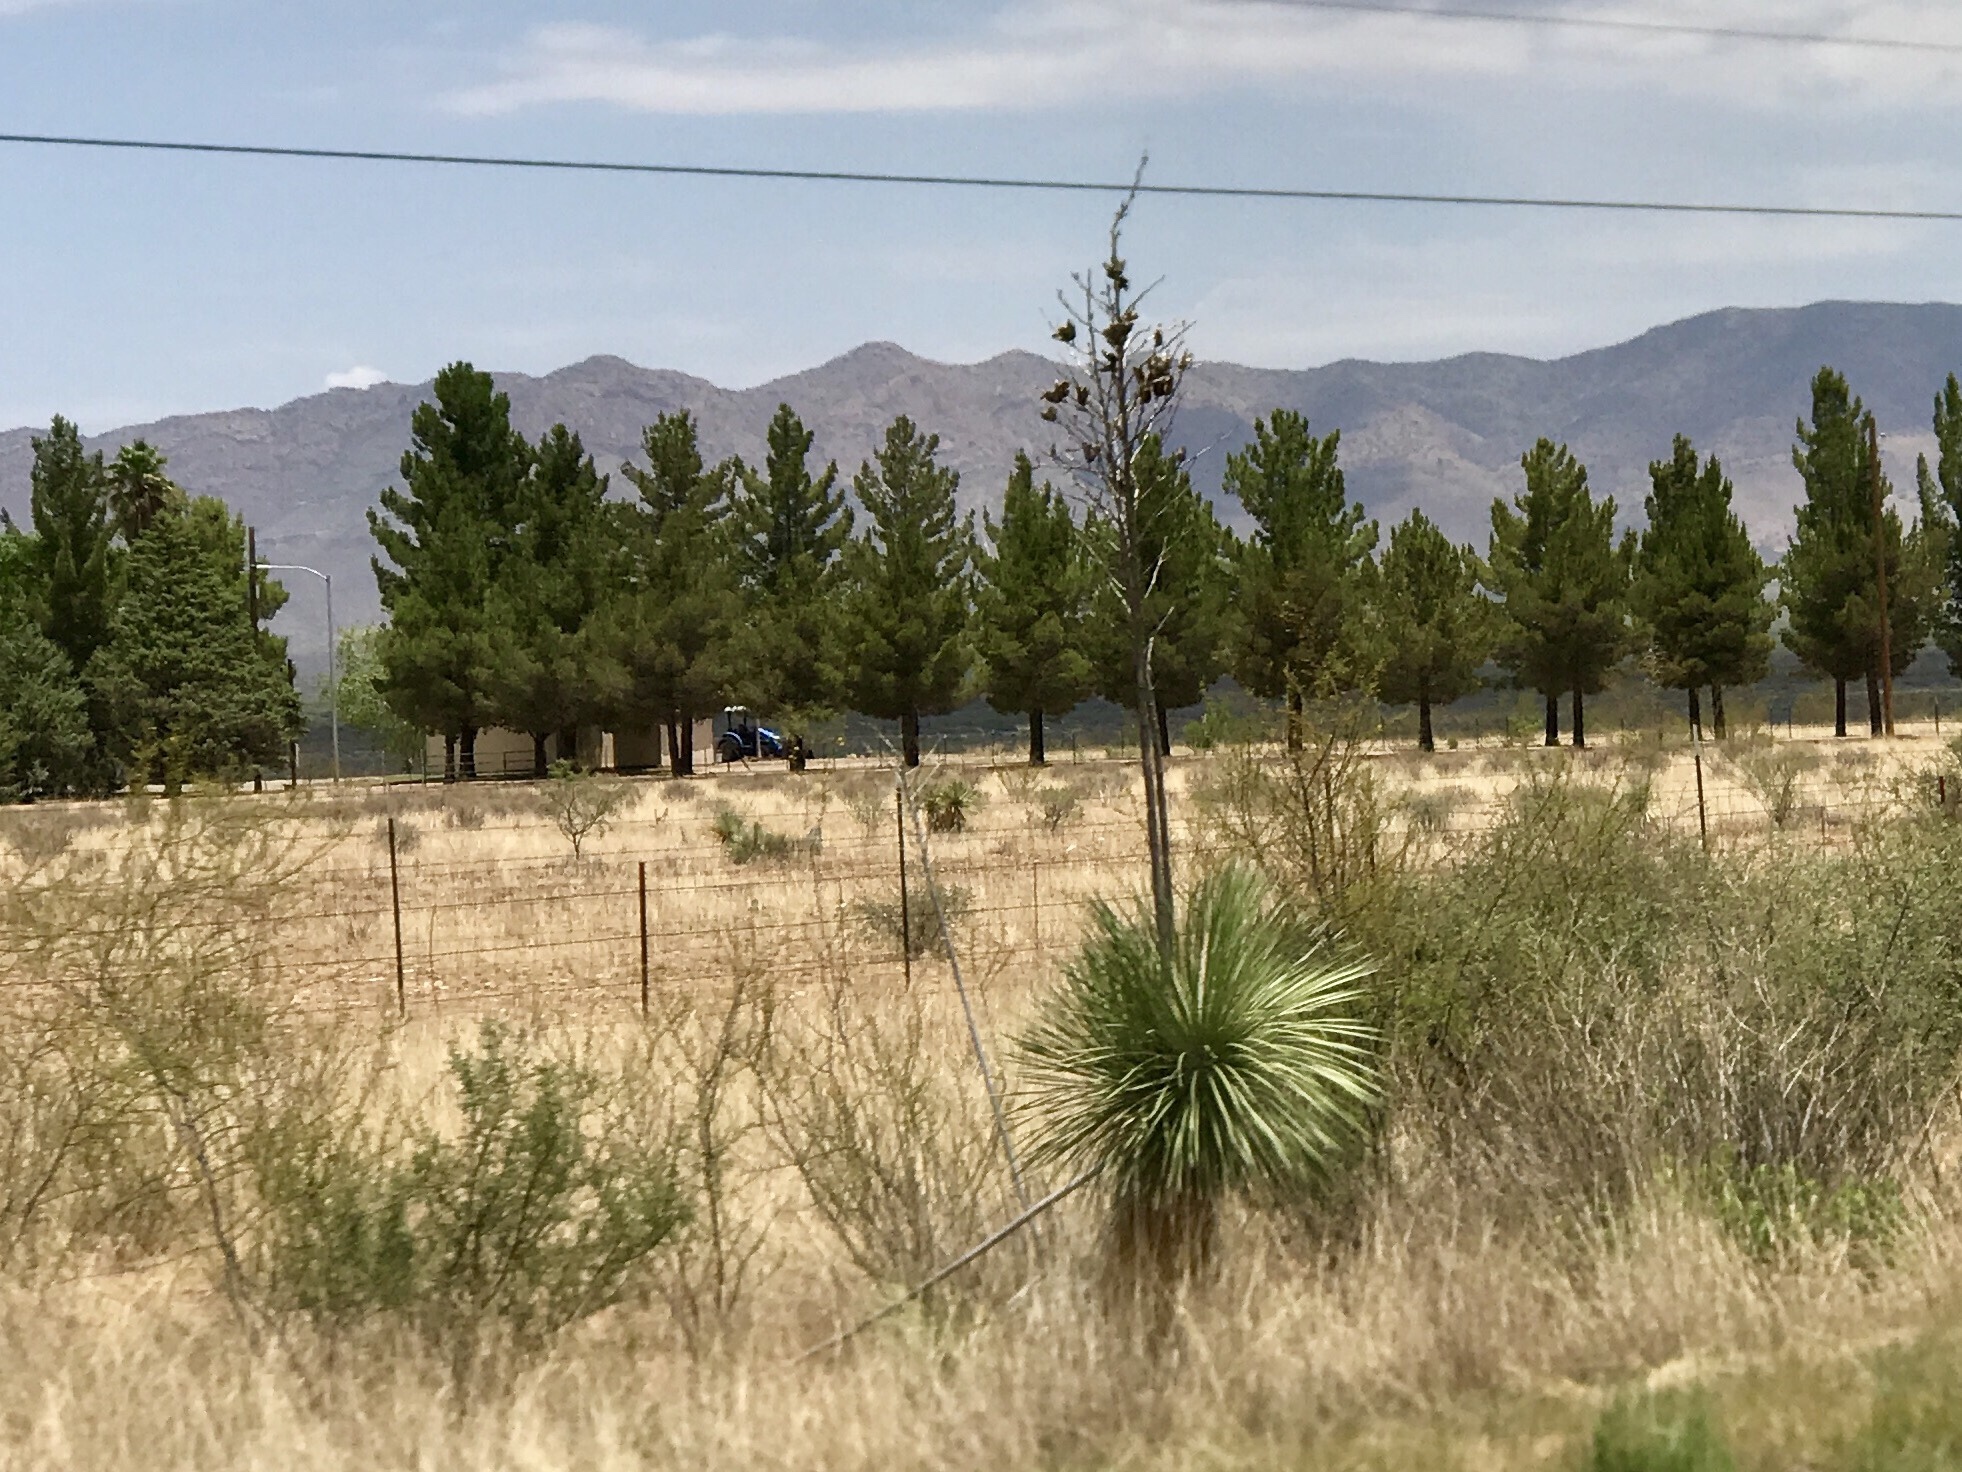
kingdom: Plantae
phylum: Tracheophyta
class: Liliopsida
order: Asparagales
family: Asparagaceae
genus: Yucca
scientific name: Yucca elata
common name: Palmella
